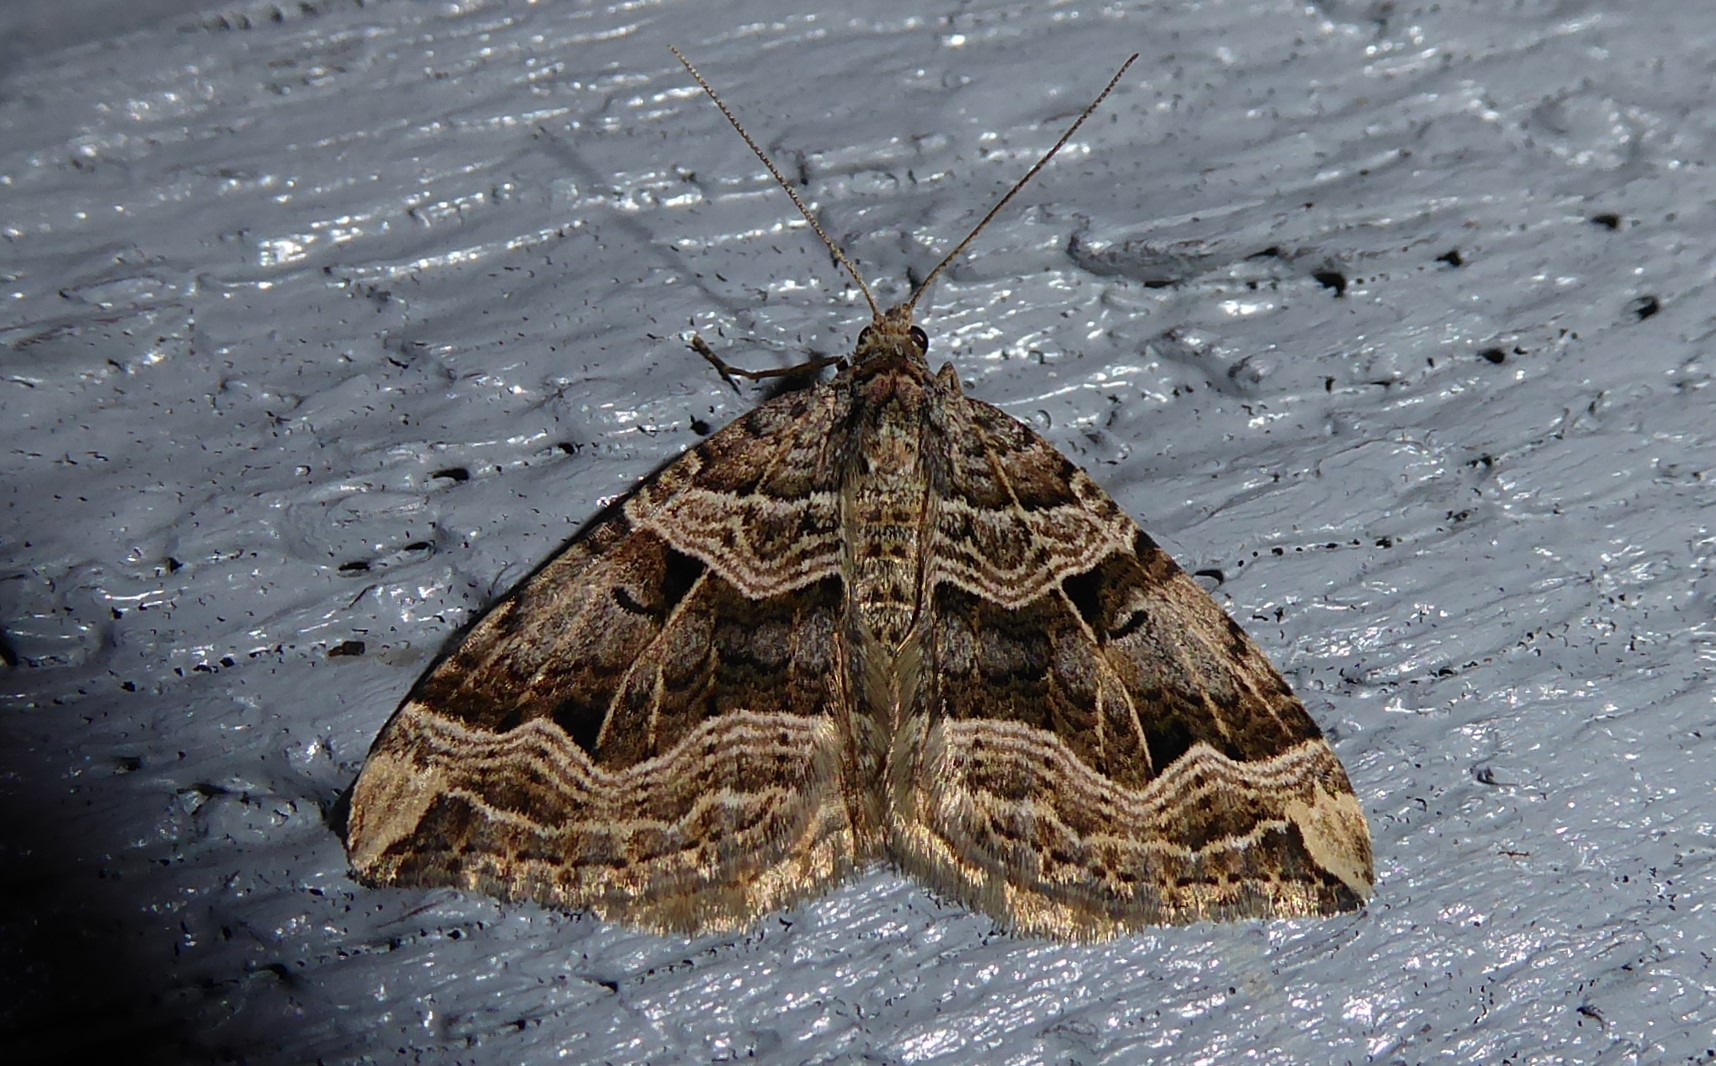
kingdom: Animalia
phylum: Arthropoda
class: Insecta
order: Lepidoptera
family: Geometridae
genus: Xanthorhoe
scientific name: Xanthorhoe semifissata
